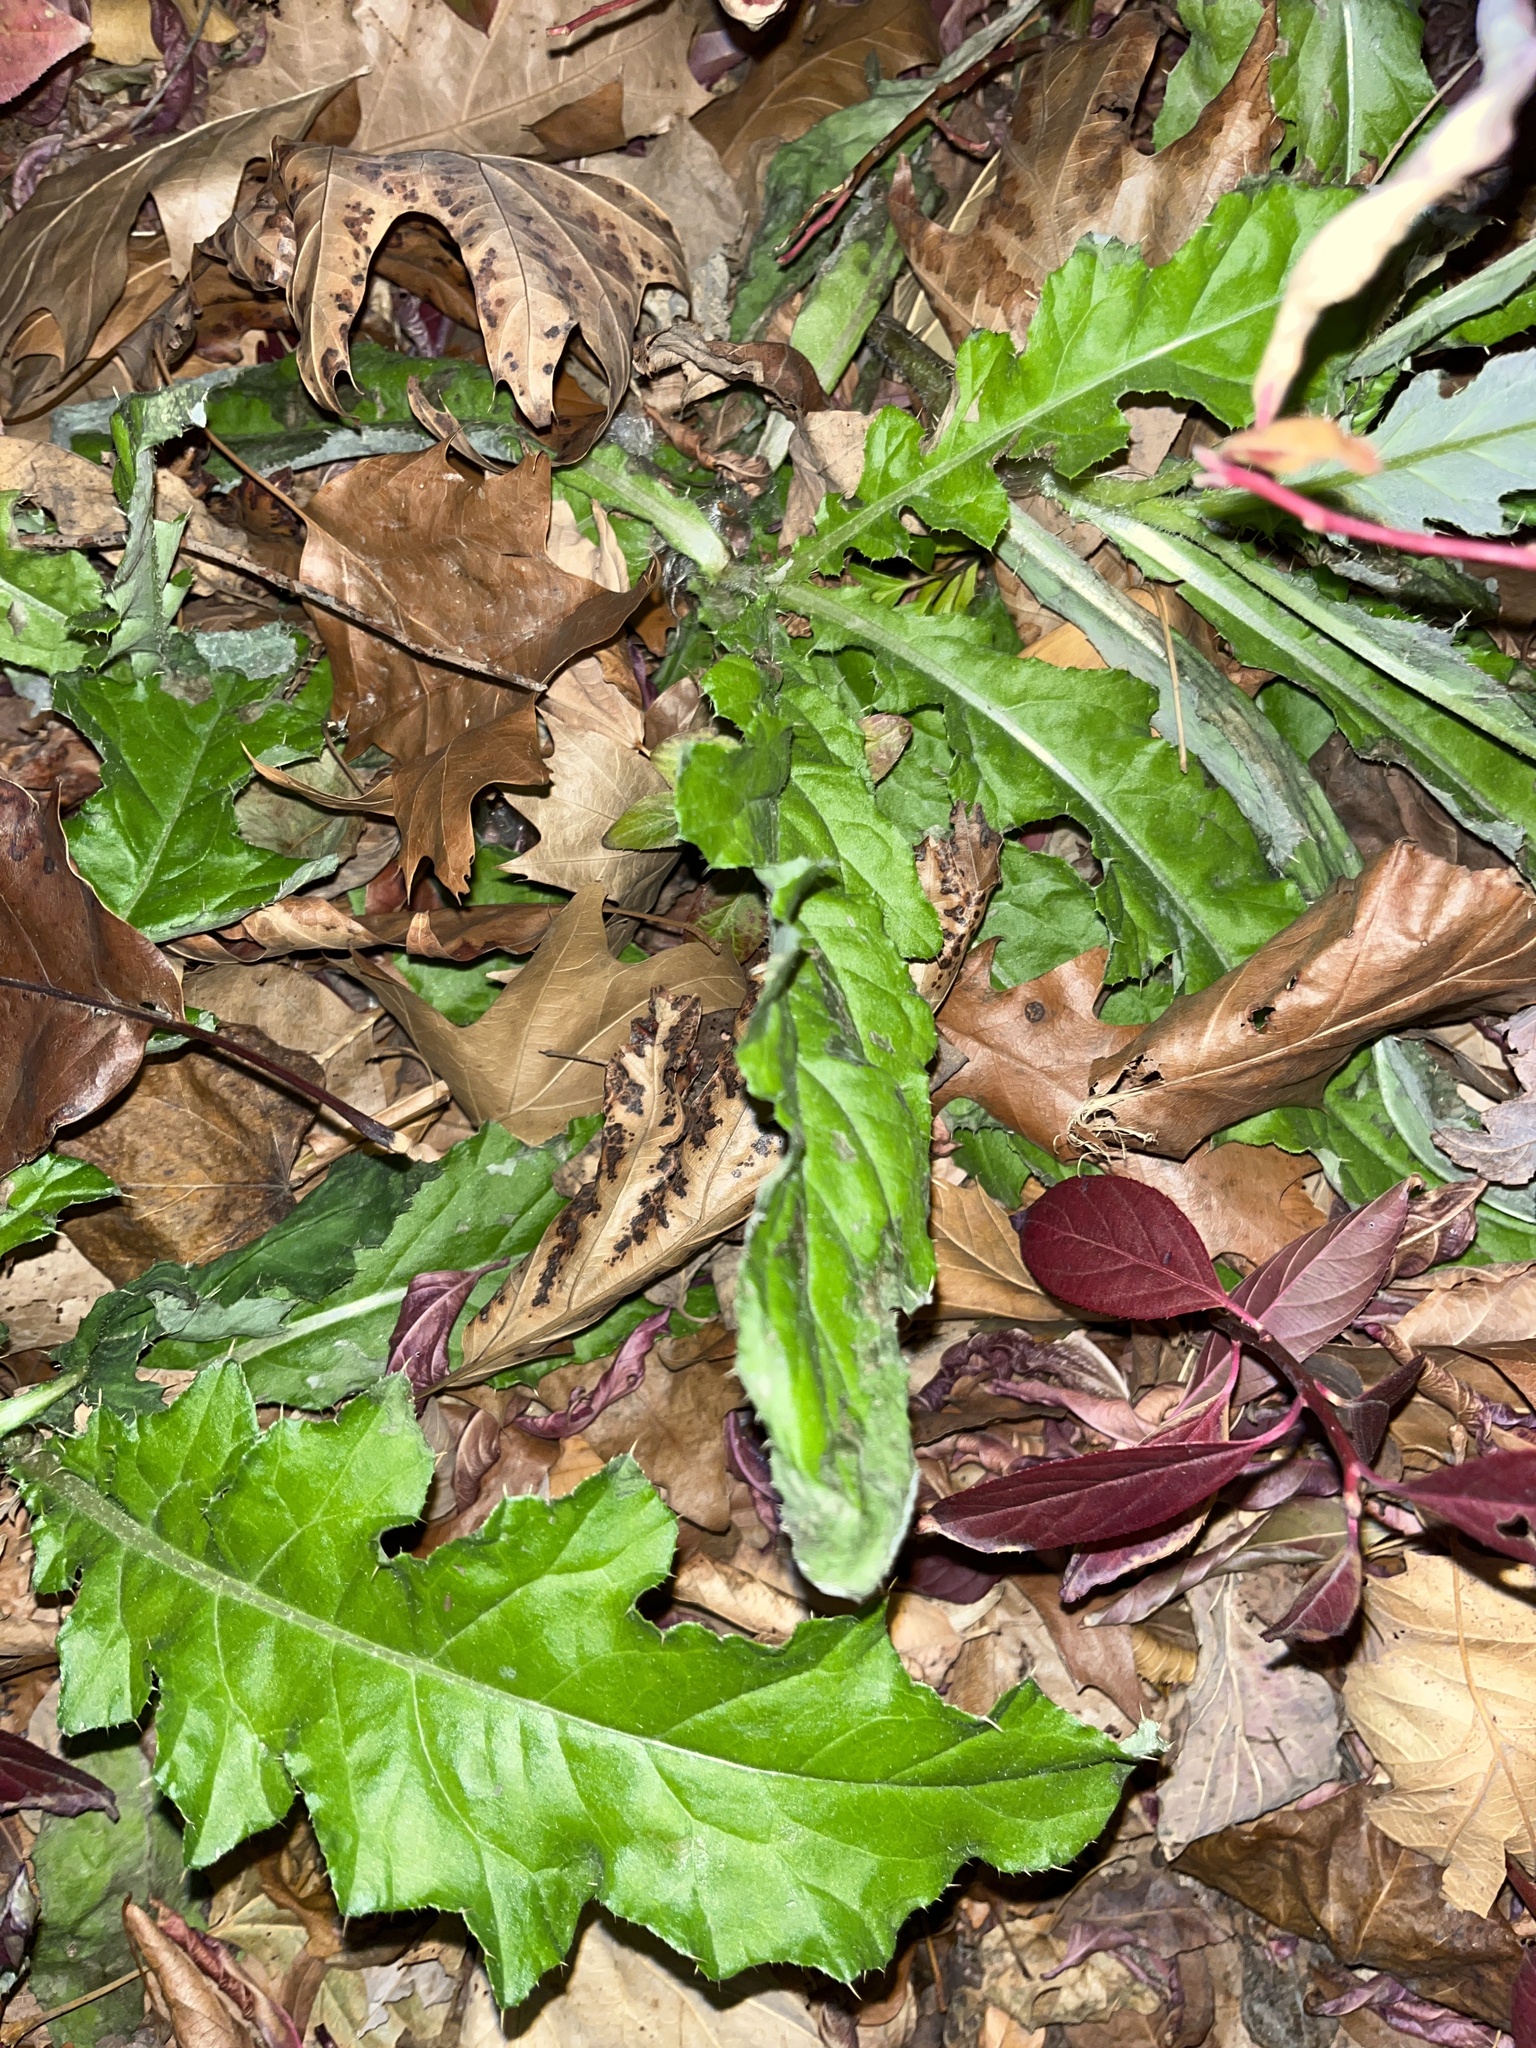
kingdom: Plantae
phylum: Tracheophyta
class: Magnoliopsida
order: Asterales
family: Asteraceae
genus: Cirsium
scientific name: Cirsium arvense
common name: Creeping thistle
